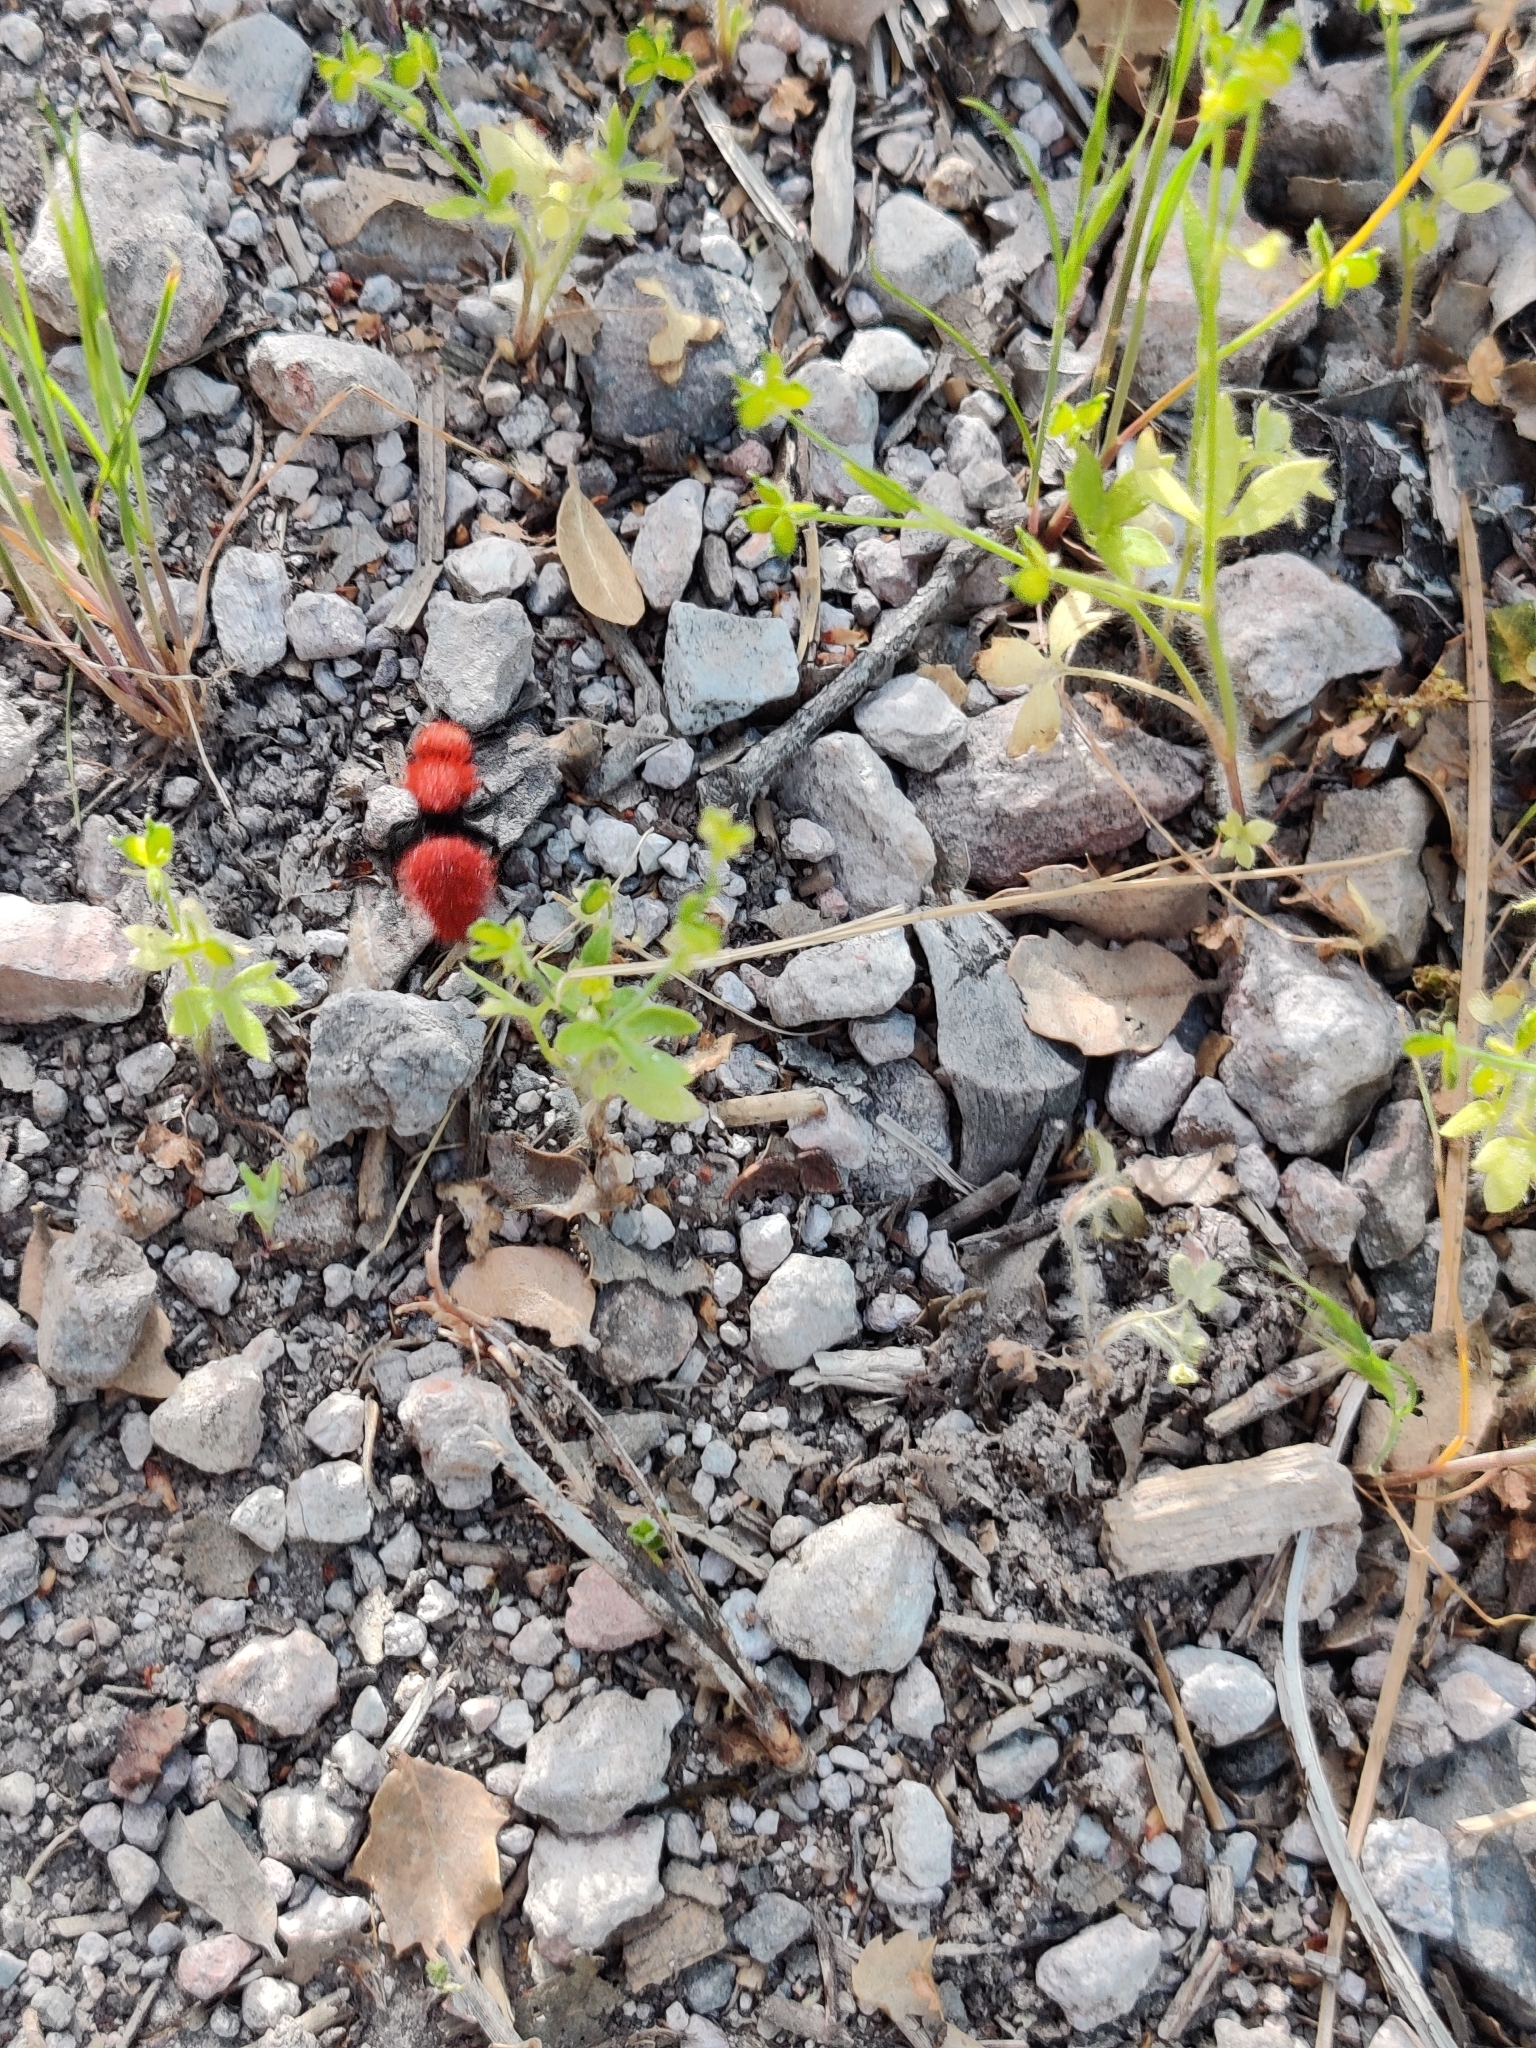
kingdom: Animalia
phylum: Arthropoda
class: Insecta
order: Hymenoptera
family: Mutillidae
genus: Dasymutilla
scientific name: Dasymutilla
